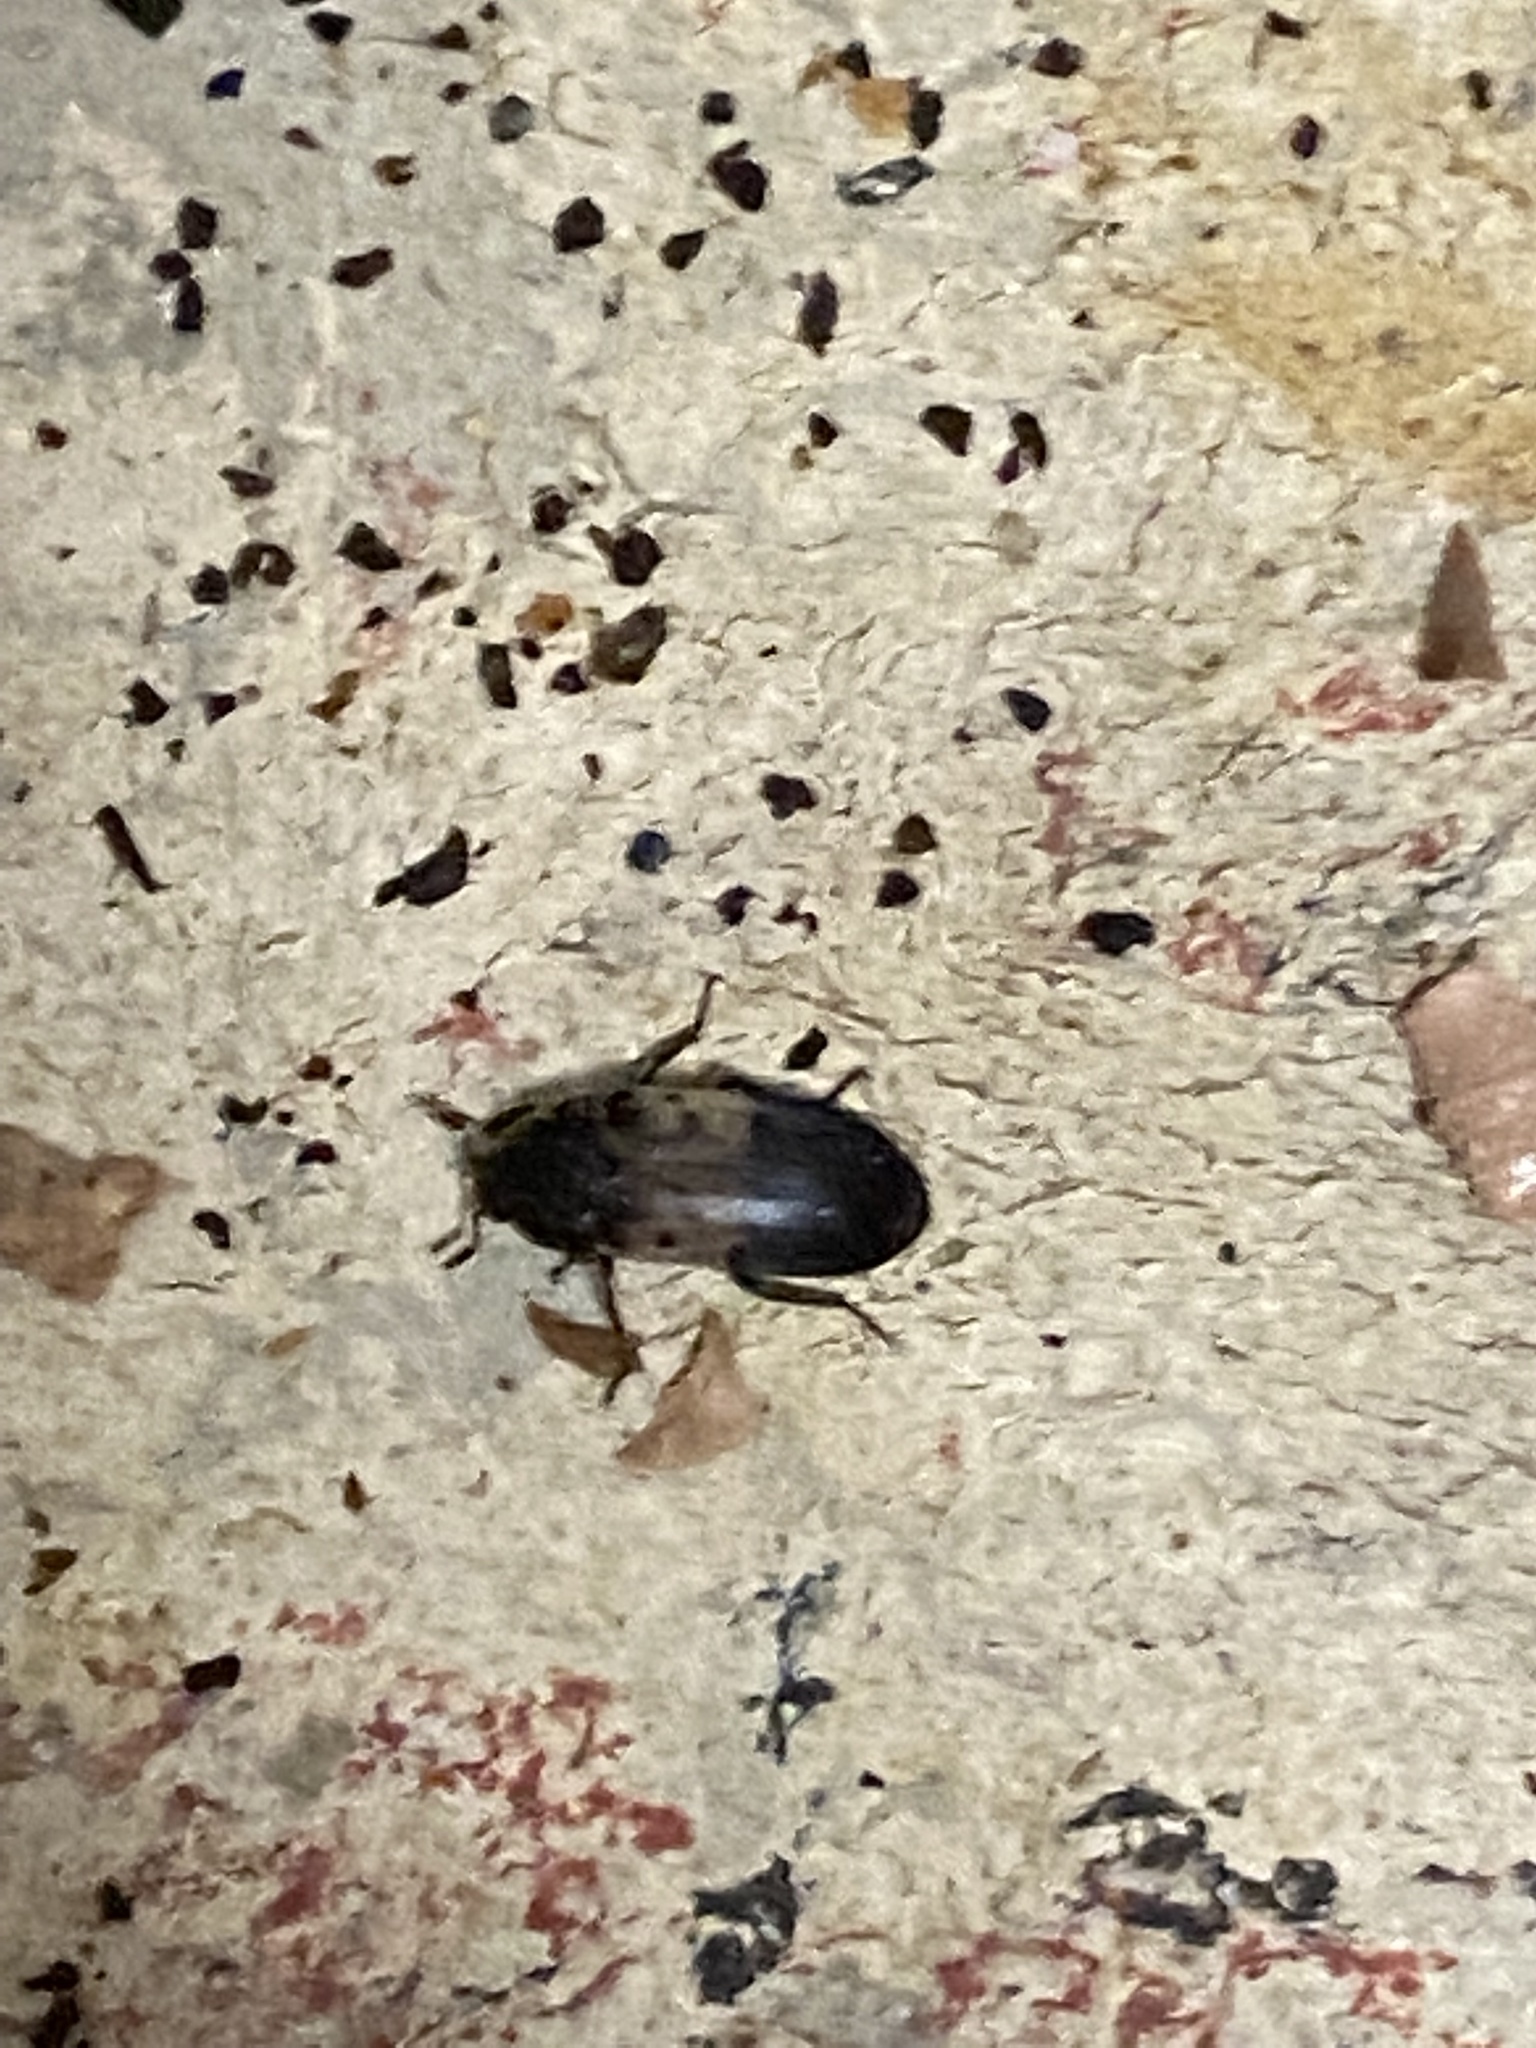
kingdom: Animalia
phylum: Arthropoda
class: Insecta
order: Coleoptera
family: Dermestidae
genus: Dermestes
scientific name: Dermestes lardarius
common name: Larder beetle
